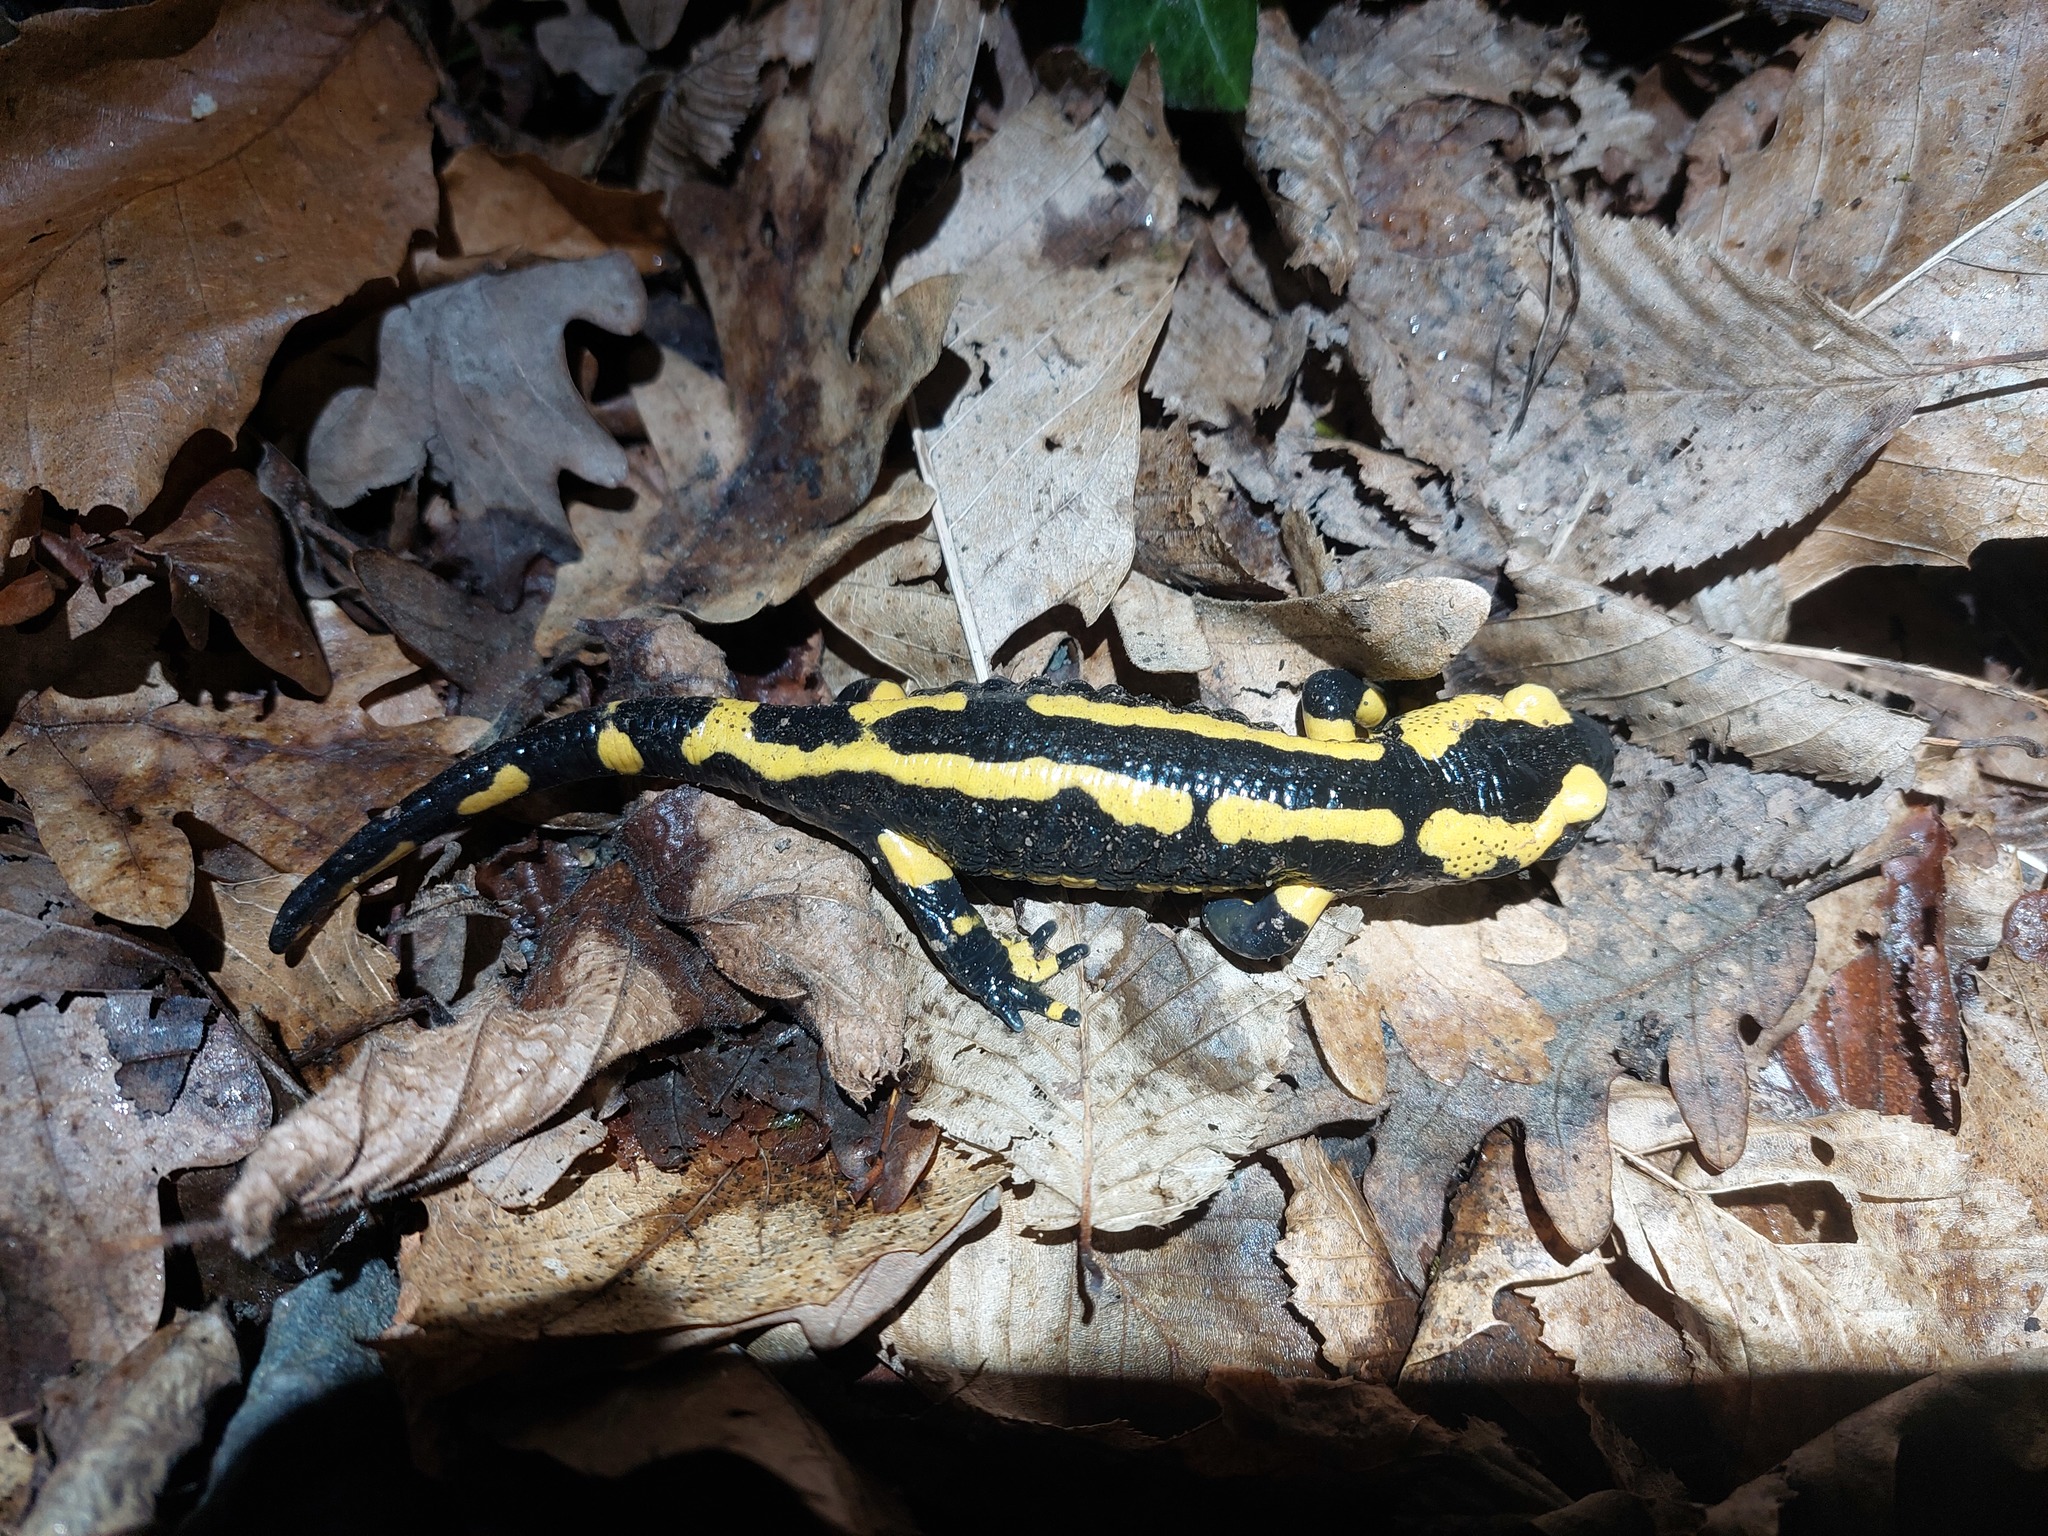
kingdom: Animalia
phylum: Chordata
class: Amphibia
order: Caudata
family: Salamandridae
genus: Salamandra
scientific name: Salamandra salamandra
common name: Fire salamander
